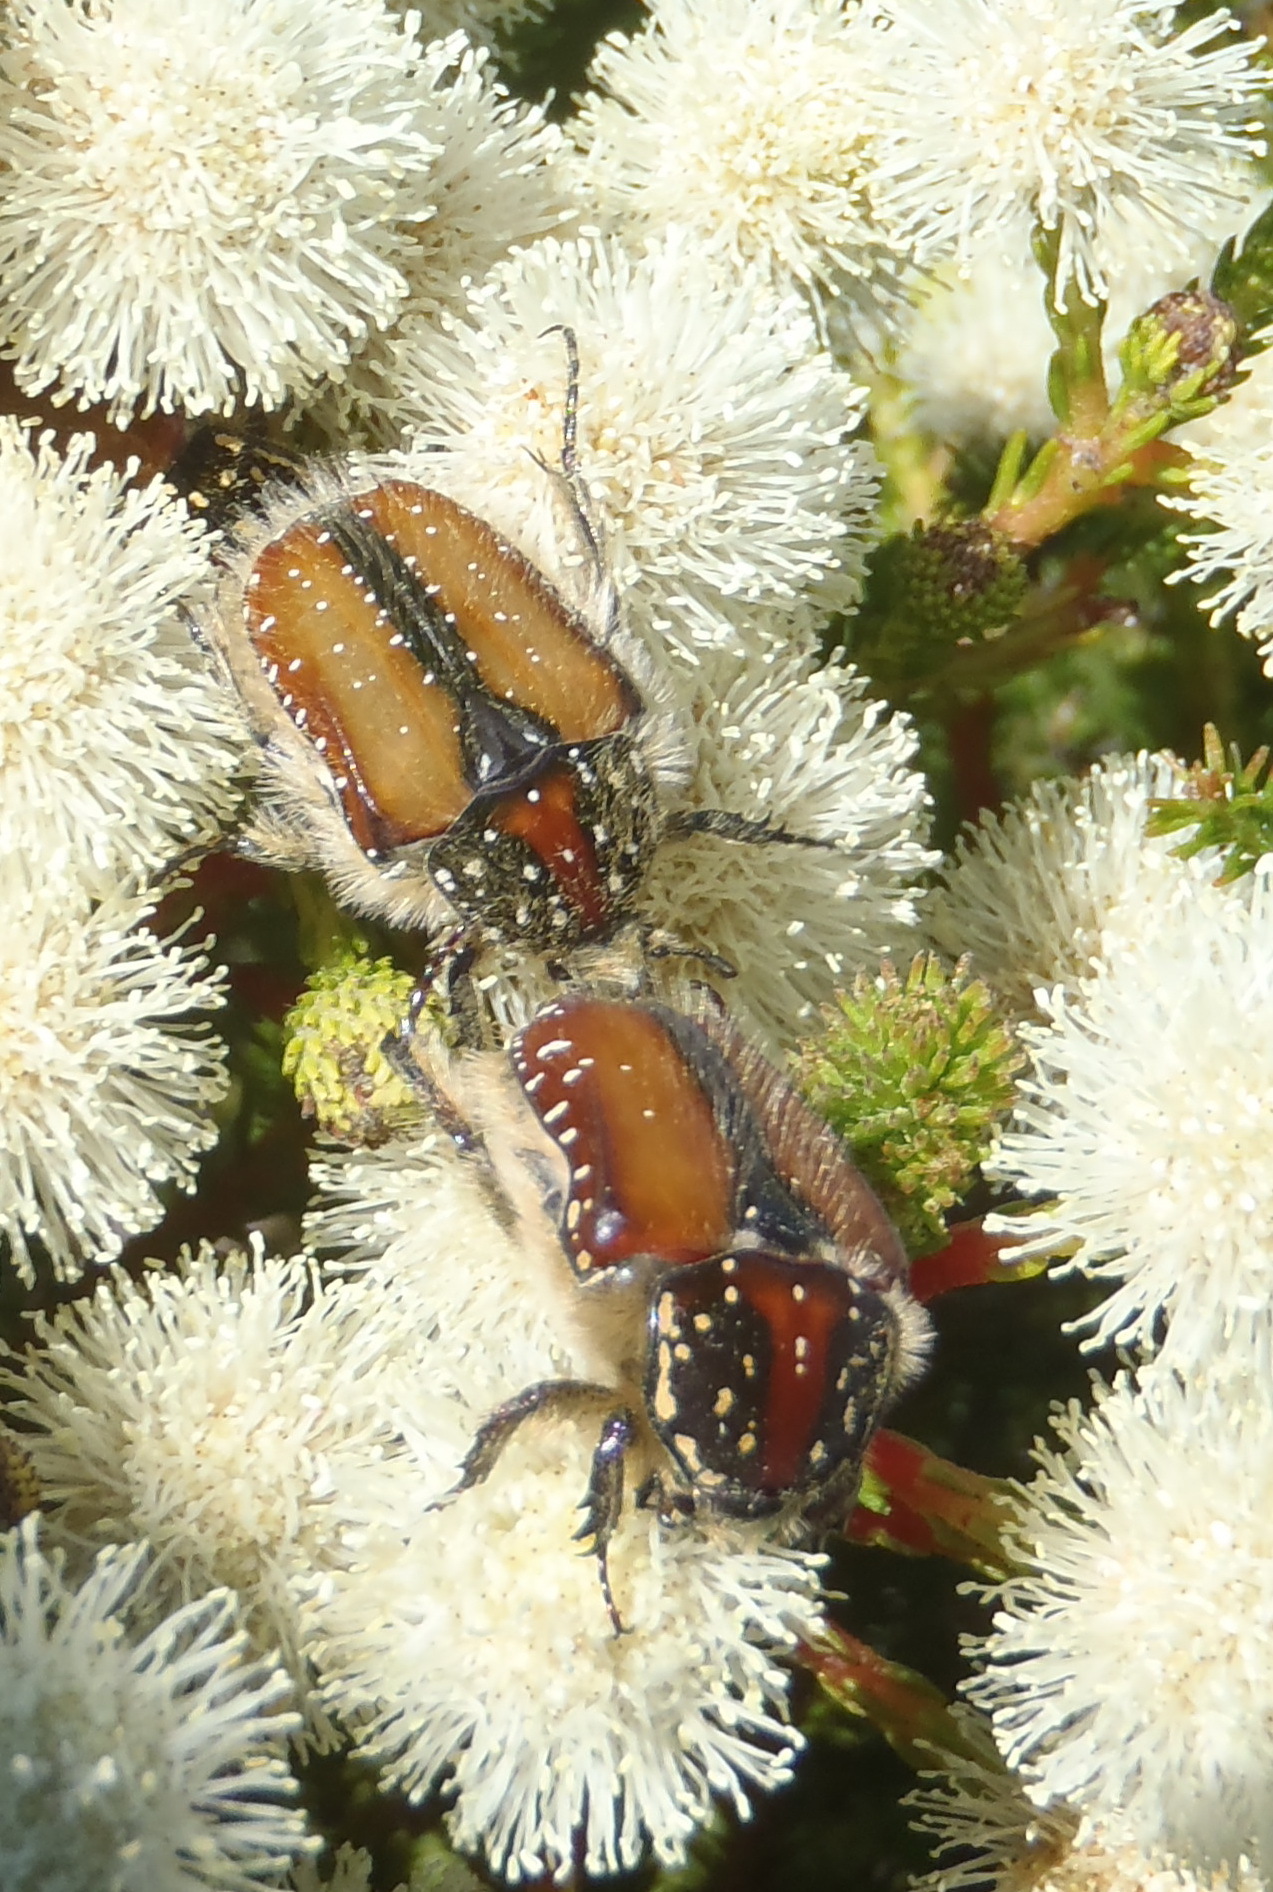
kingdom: Animalia
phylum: Arthropoda
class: Insecta
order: Coleoptera
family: Scarabaeidae
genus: Trichostetha
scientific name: Trichostetha capensis
